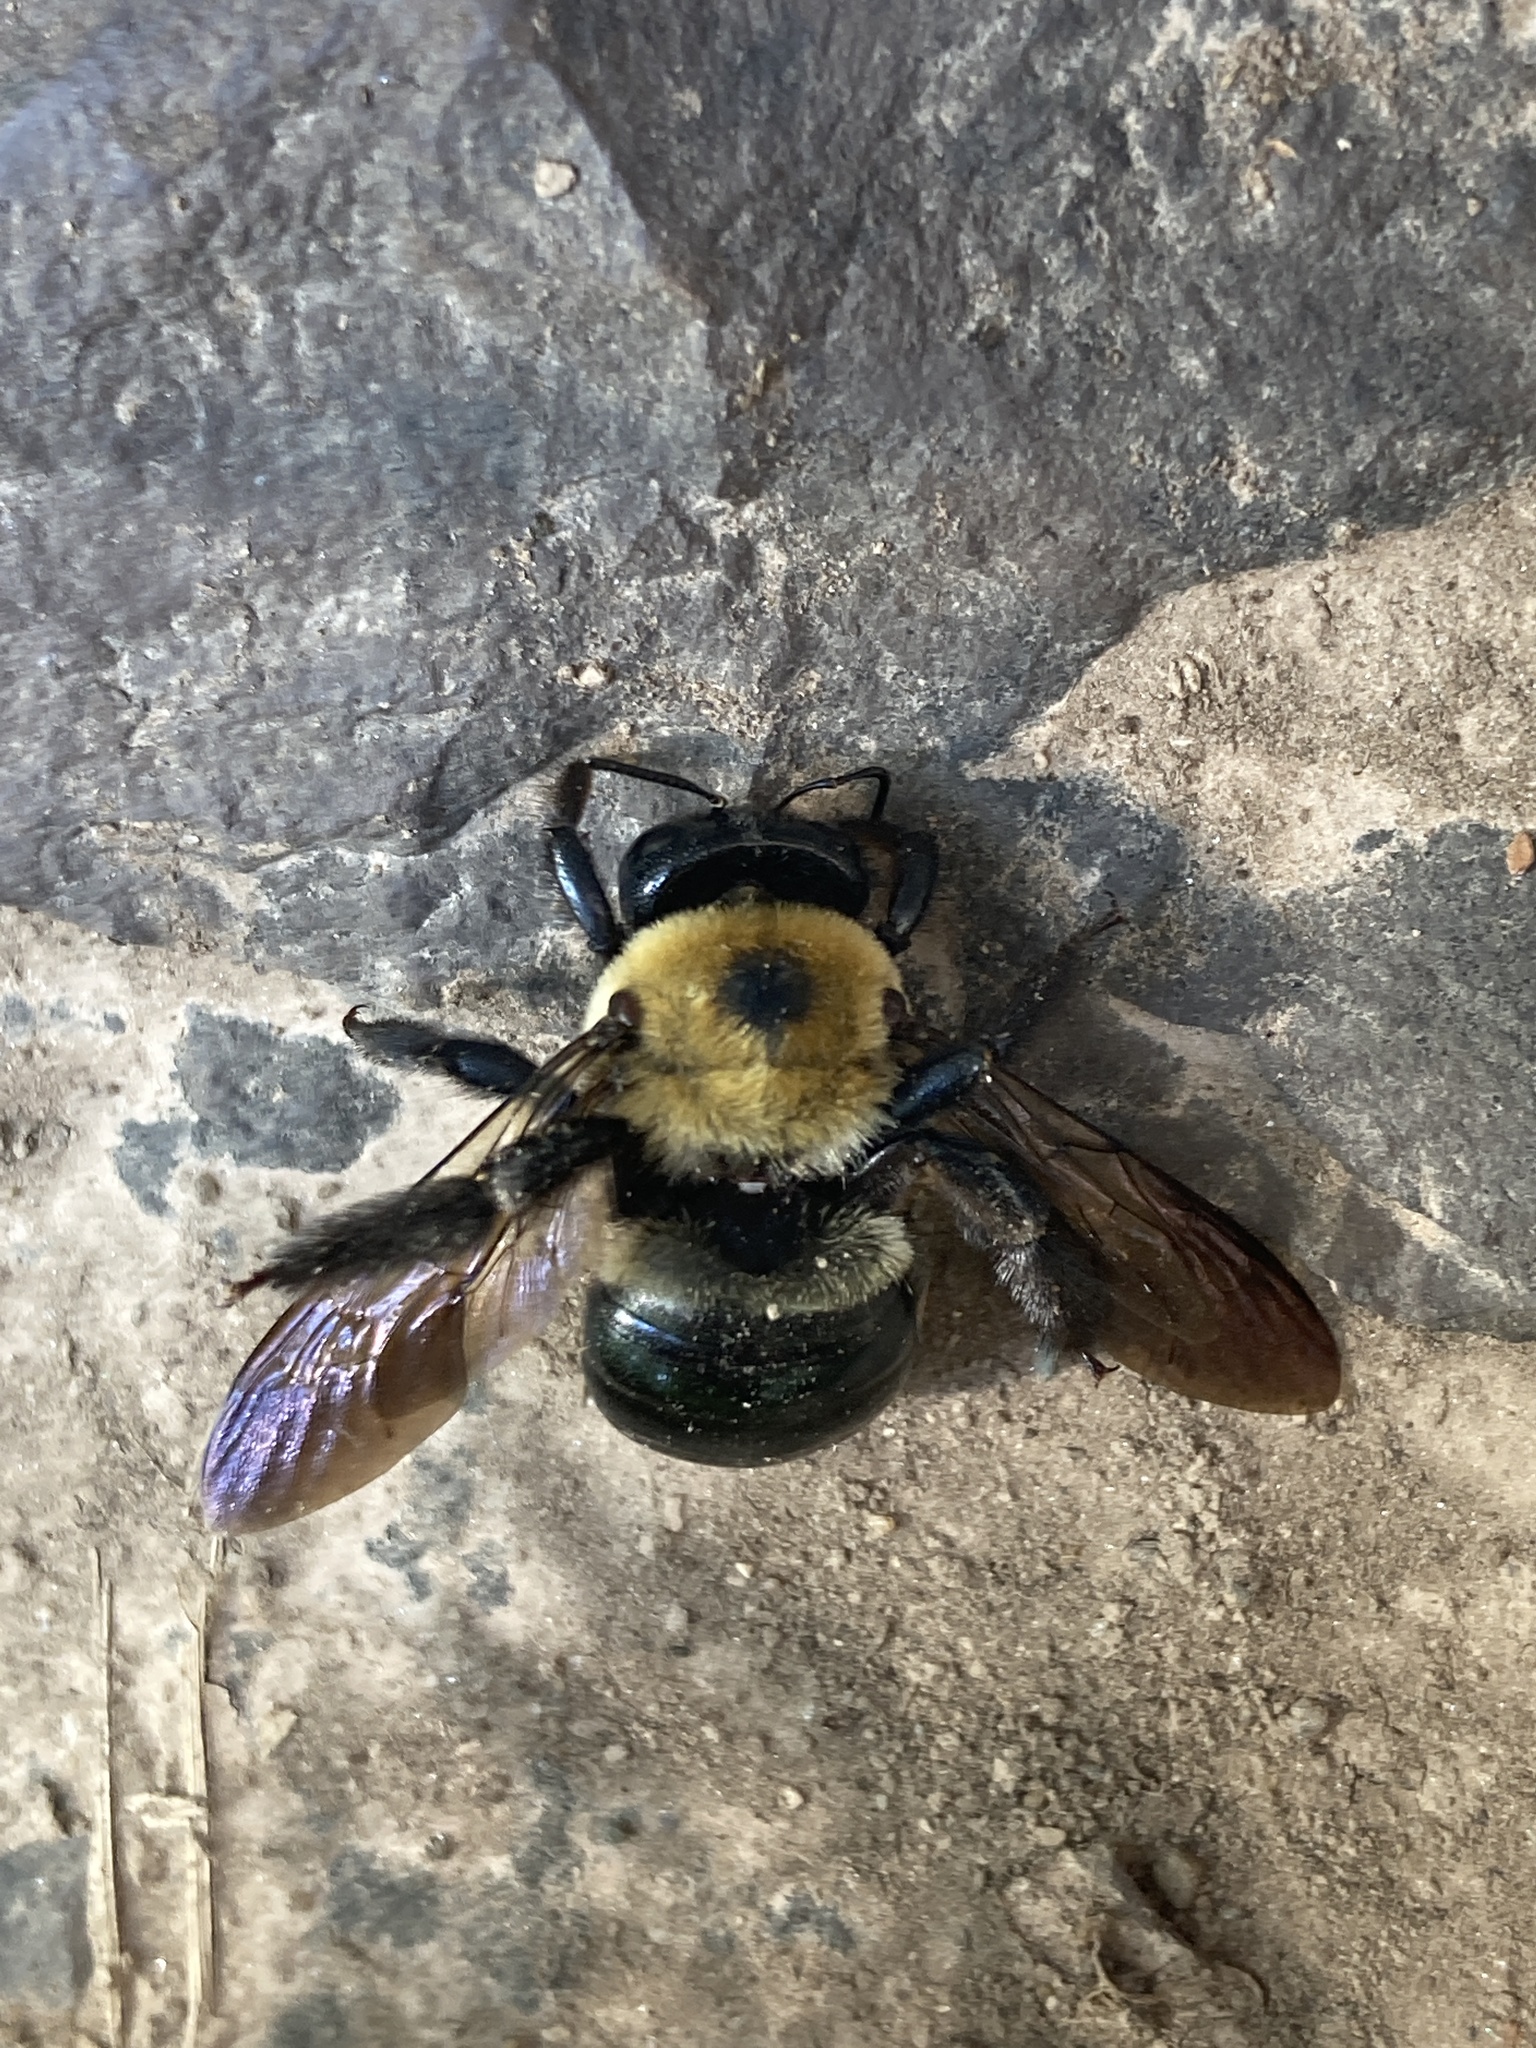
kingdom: Animalia
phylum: Arthropoda
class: Insecta
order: Hymenoptera
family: Apidae
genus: Xylocopa
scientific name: Xylocopa virginica
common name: Carpenter bee
